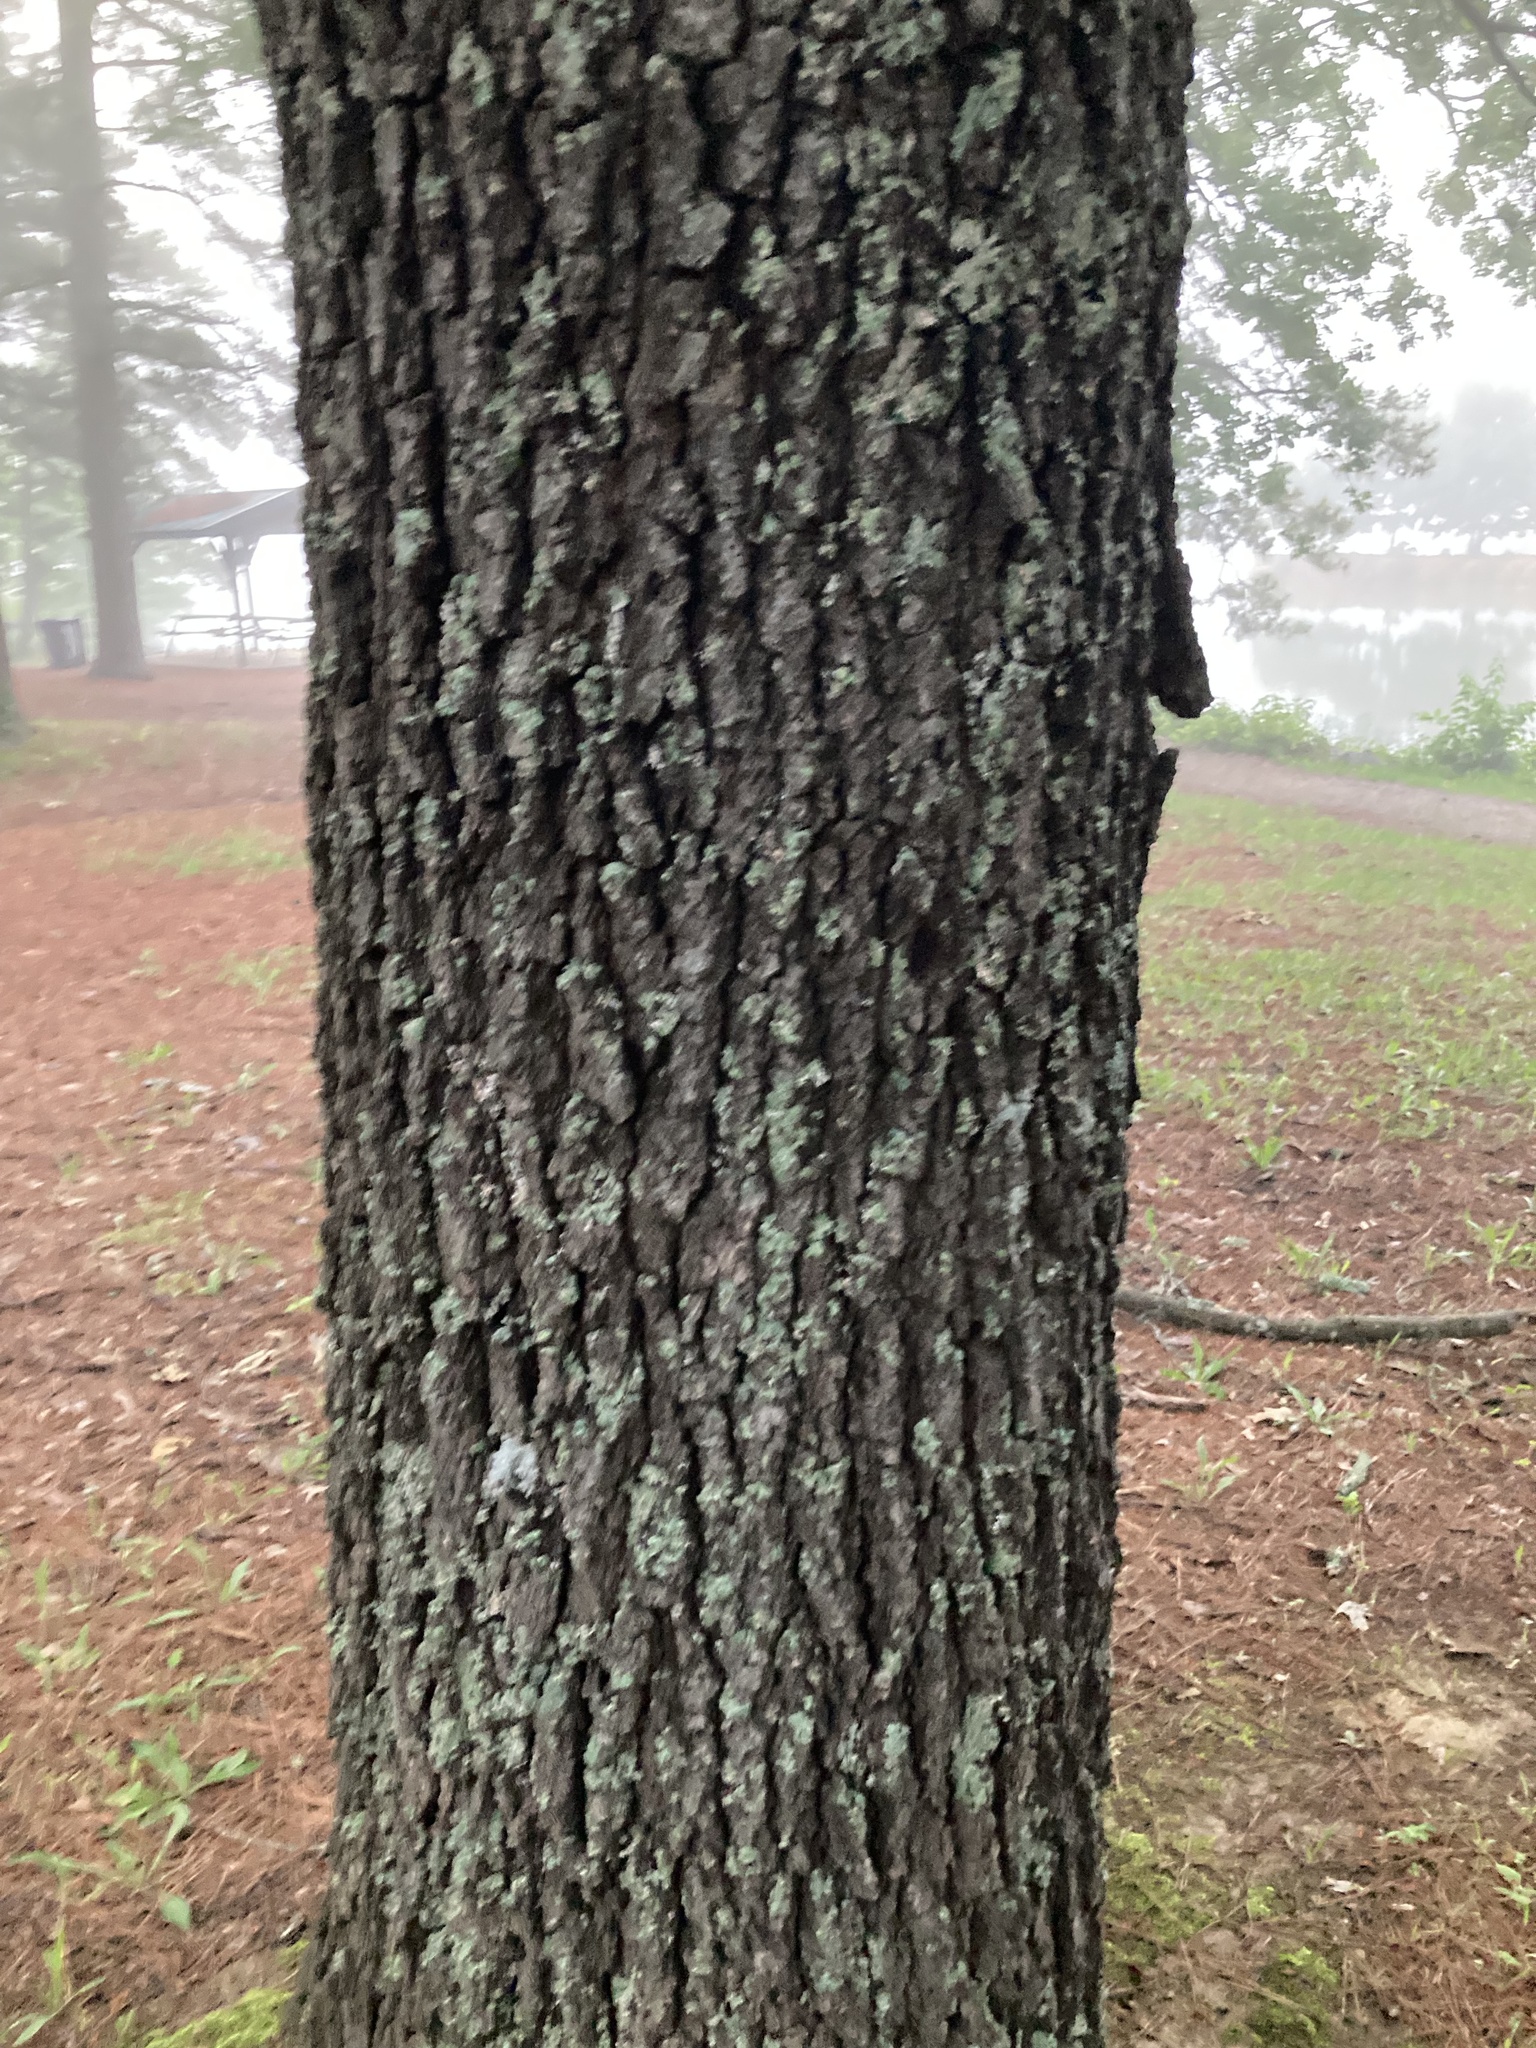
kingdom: Plantae
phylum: Tracheophyta
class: Magnoliopsida
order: Fagales
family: Fagaceae
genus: Quercus
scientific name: Quercus falcata
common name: Southern red oak
